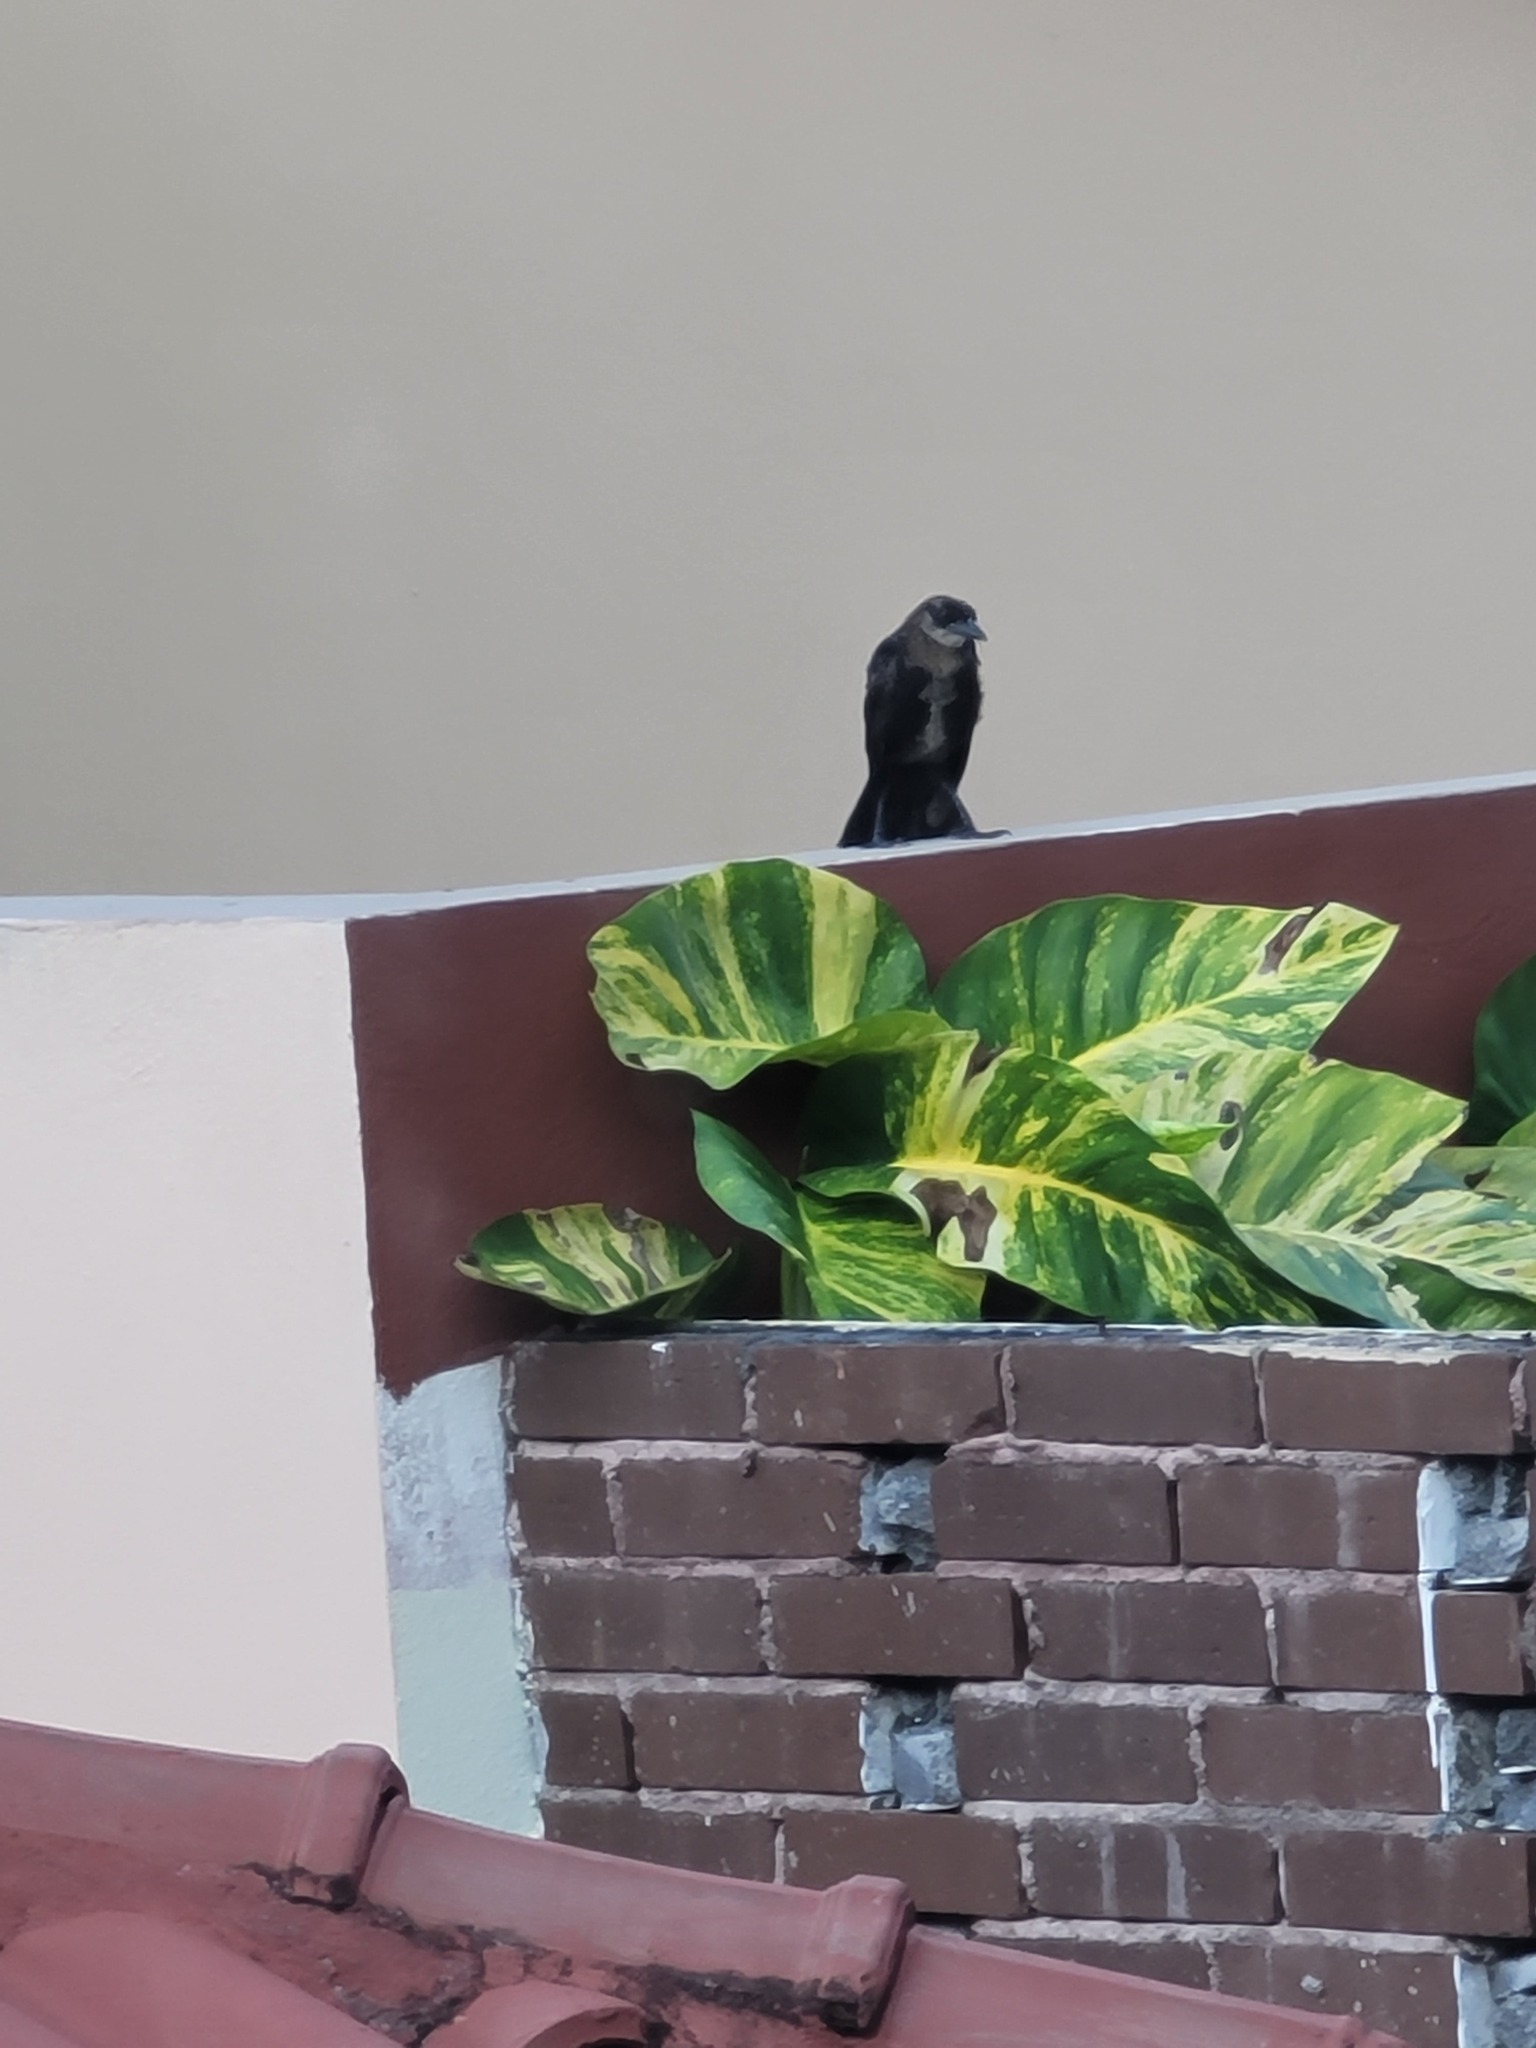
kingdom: Animalia
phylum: Chordata
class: Aves
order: Passeriformes
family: Icteridae
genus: Quiscalus
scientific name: Quiscalus mexicanus
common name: Great-tailed grackle
